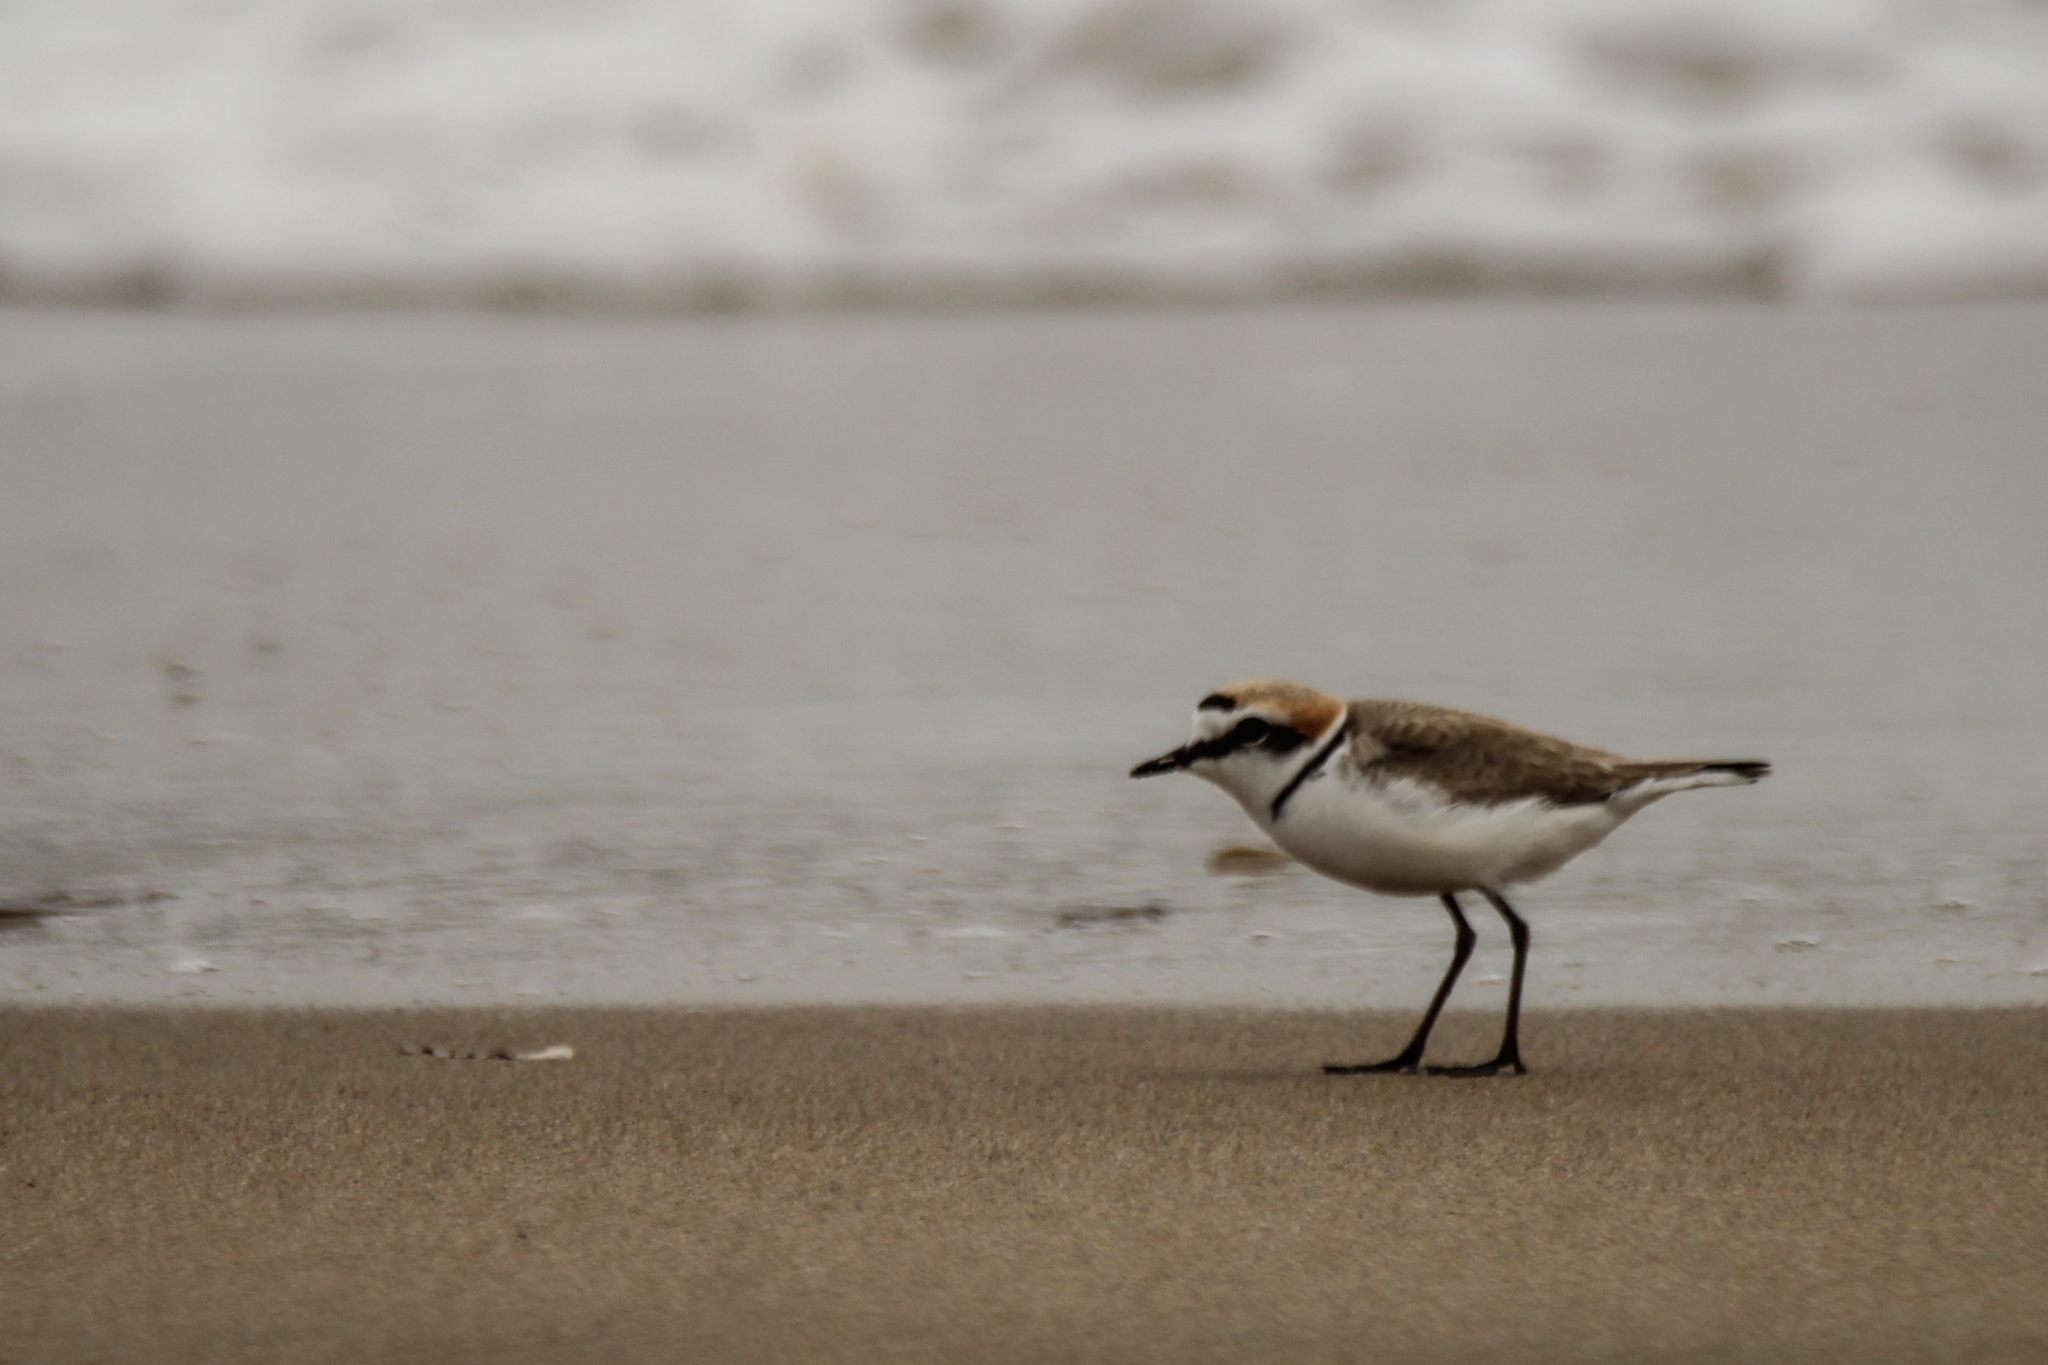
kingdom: Animalia
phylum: Chordata
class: Aves
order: Charadriiformes
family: Charadriidae
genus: Charadrius
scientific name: Charadrius alexandrinus
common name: Kentish plover
